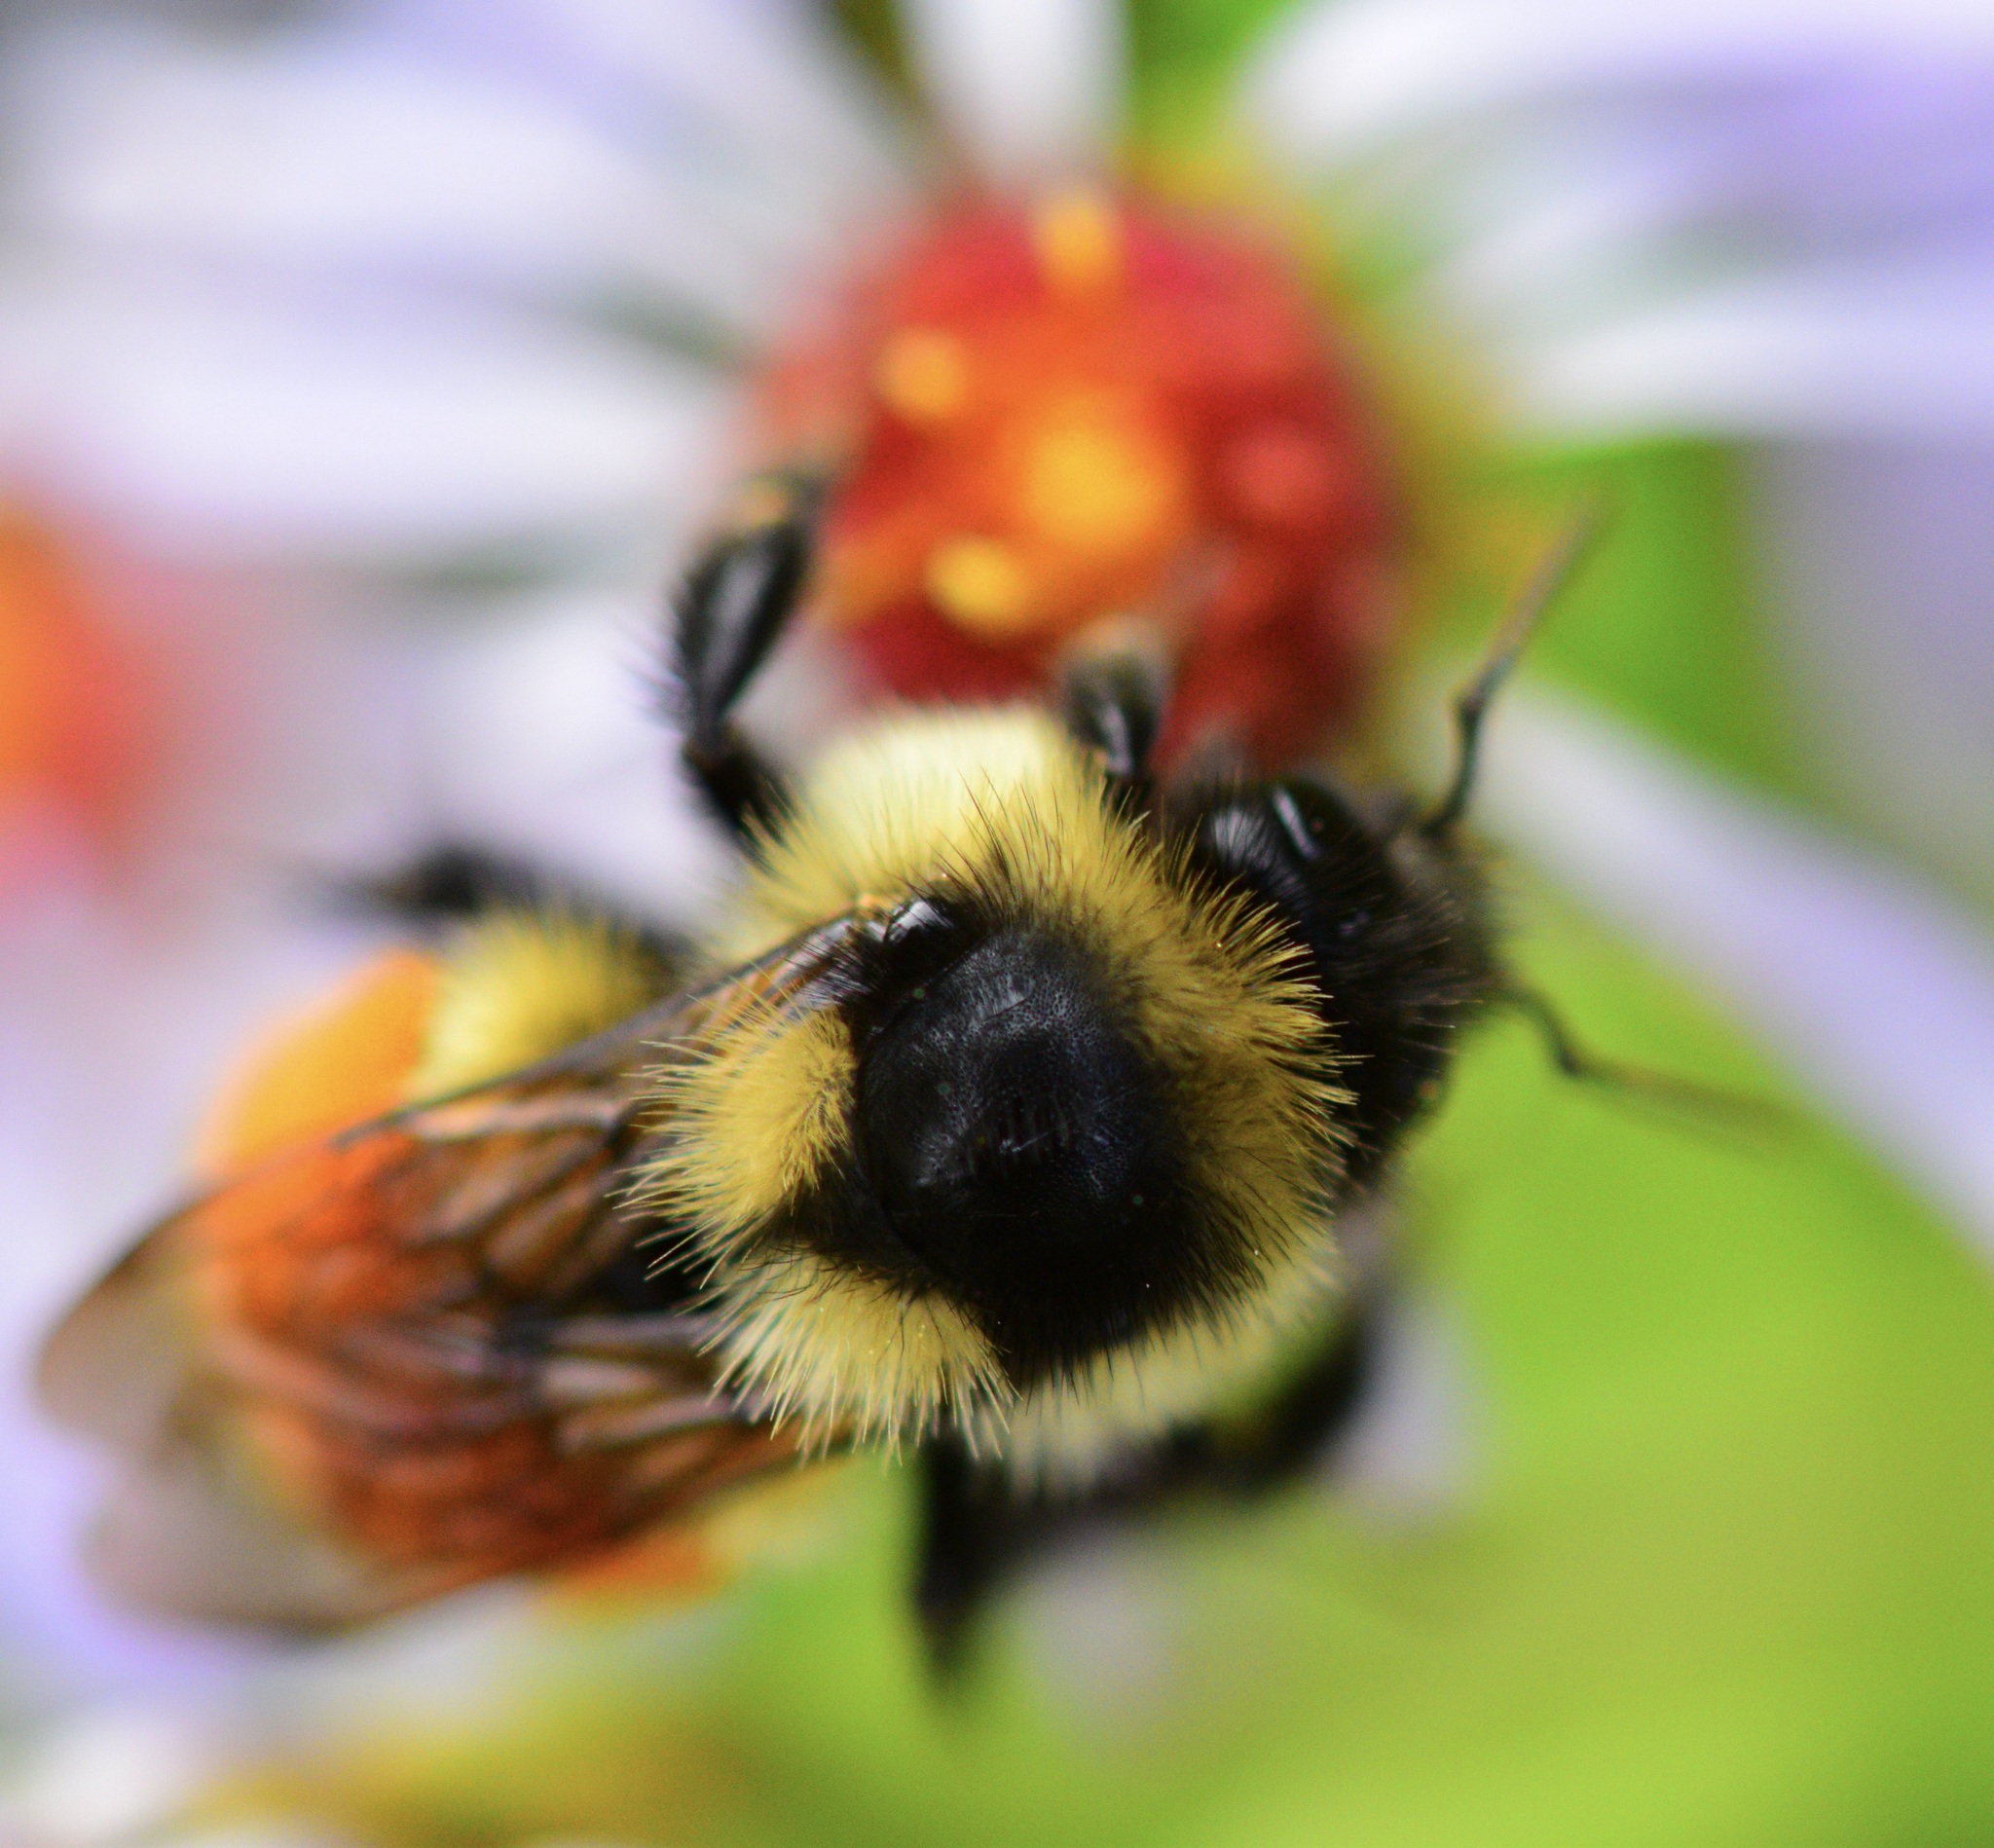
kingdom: Animalia
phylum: Arthropoda
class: Insecta
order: Hymenoptera
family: Apidae
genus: Bombus
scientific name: Bombus ternarius
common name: Tri-colored bumble bee
